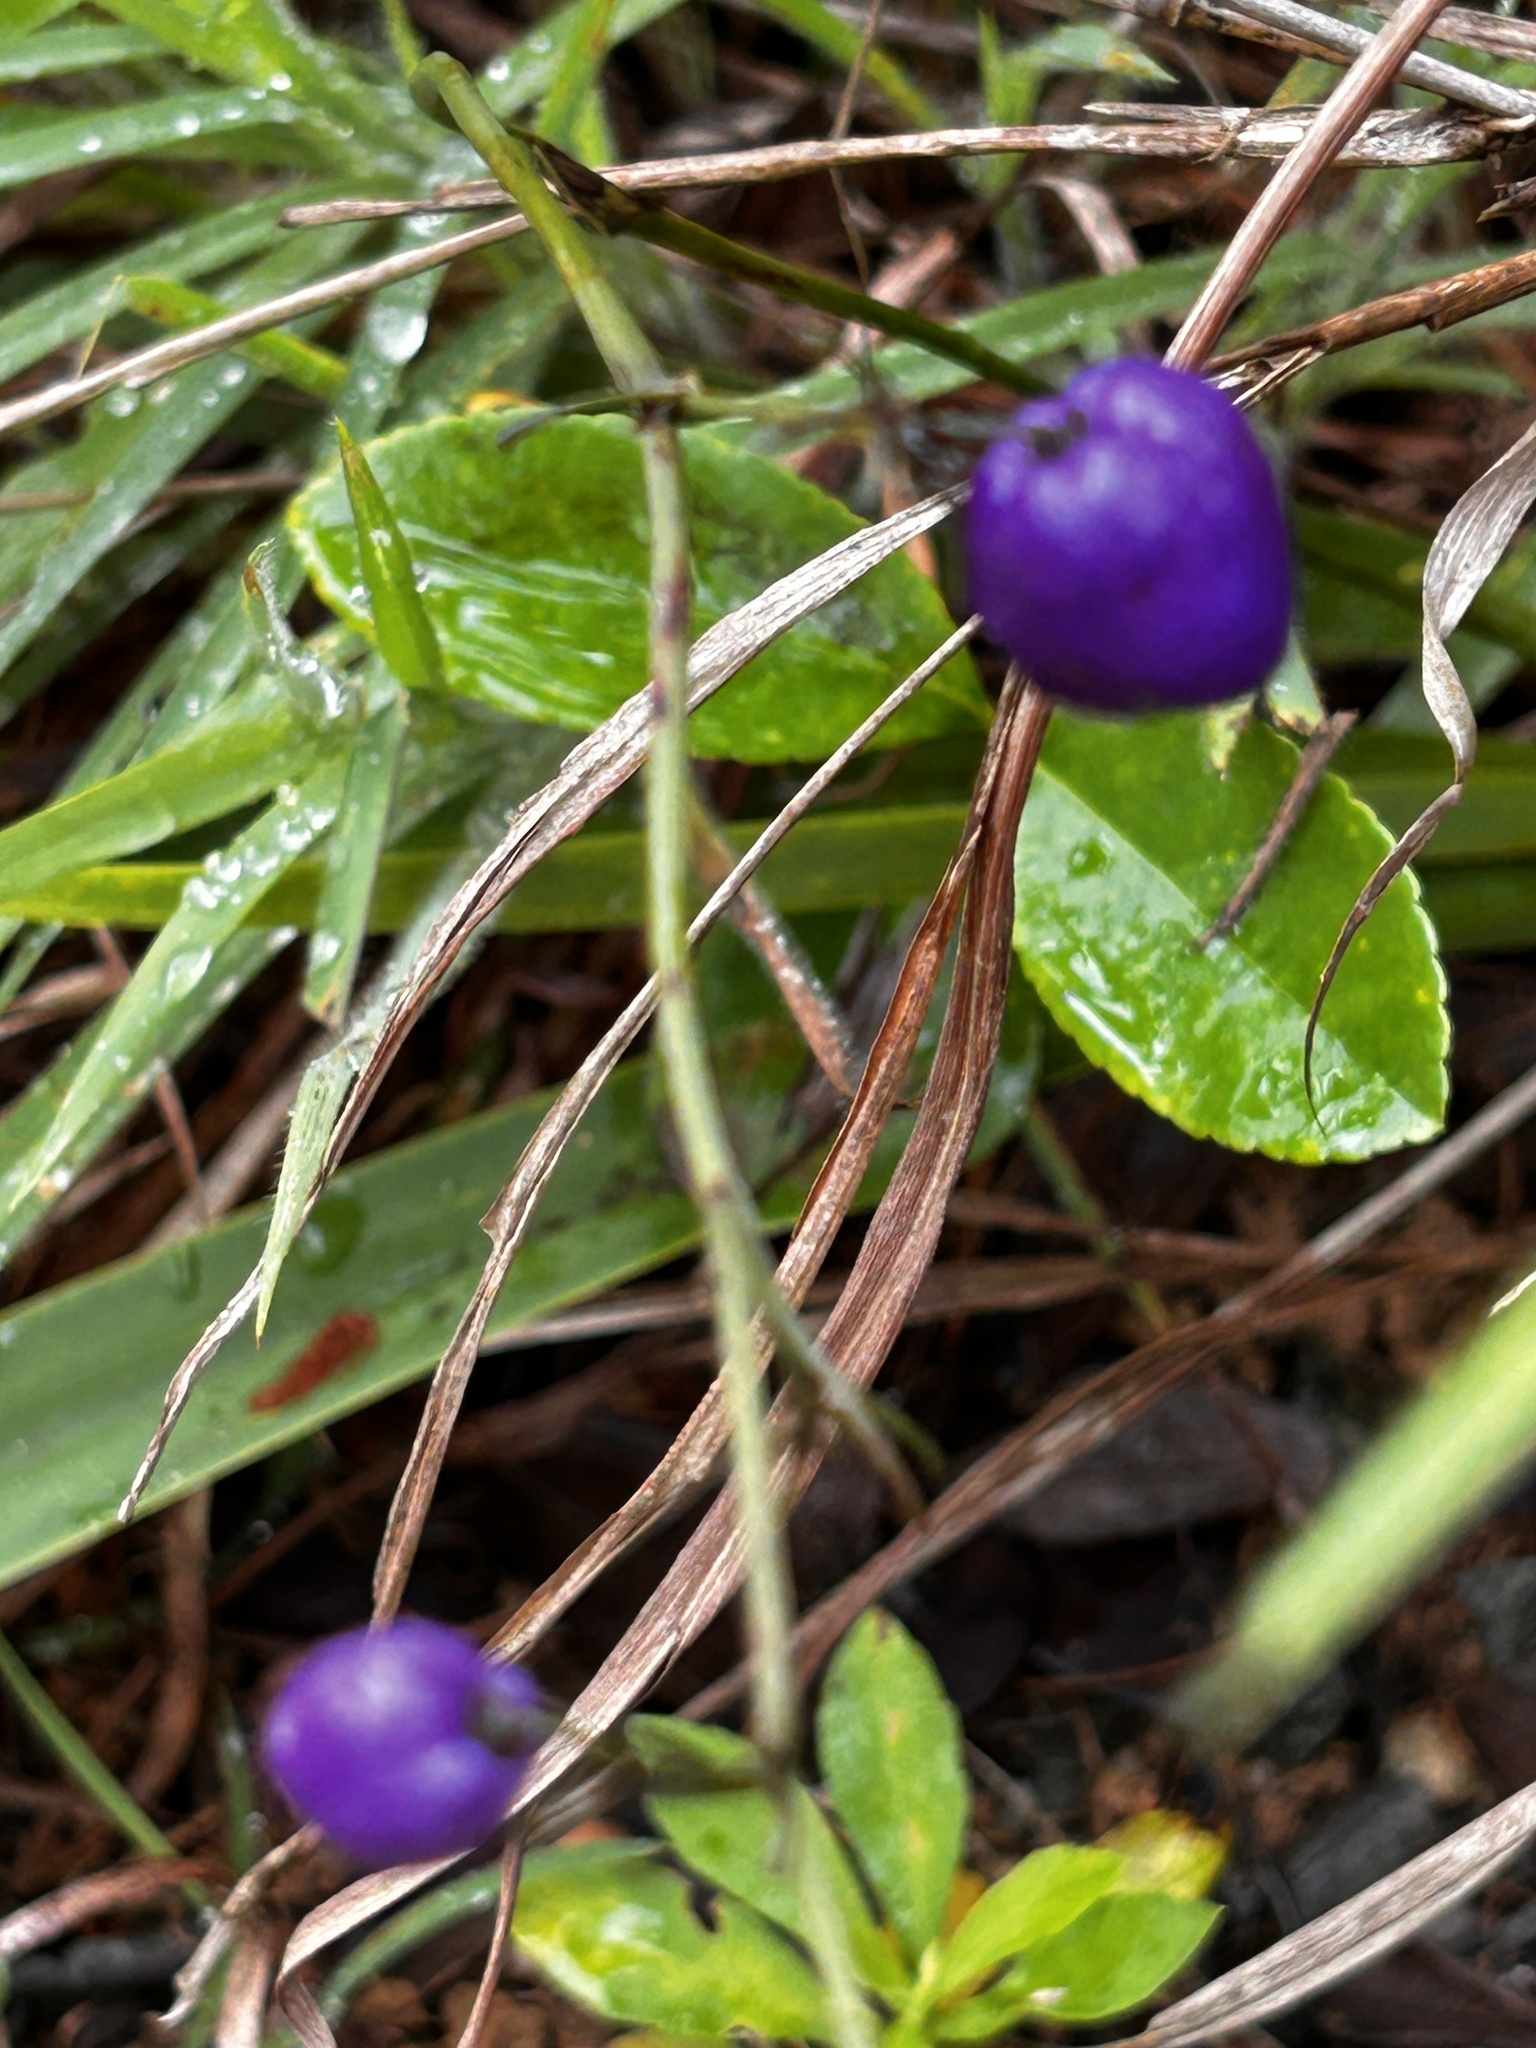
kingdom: Plantae
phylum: Tracheophyta
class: Liliopsida
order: Asparagales
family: Asphodelaceae
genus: Dianella
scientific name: Dianella ensifolia
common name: New zealand lilyplant
